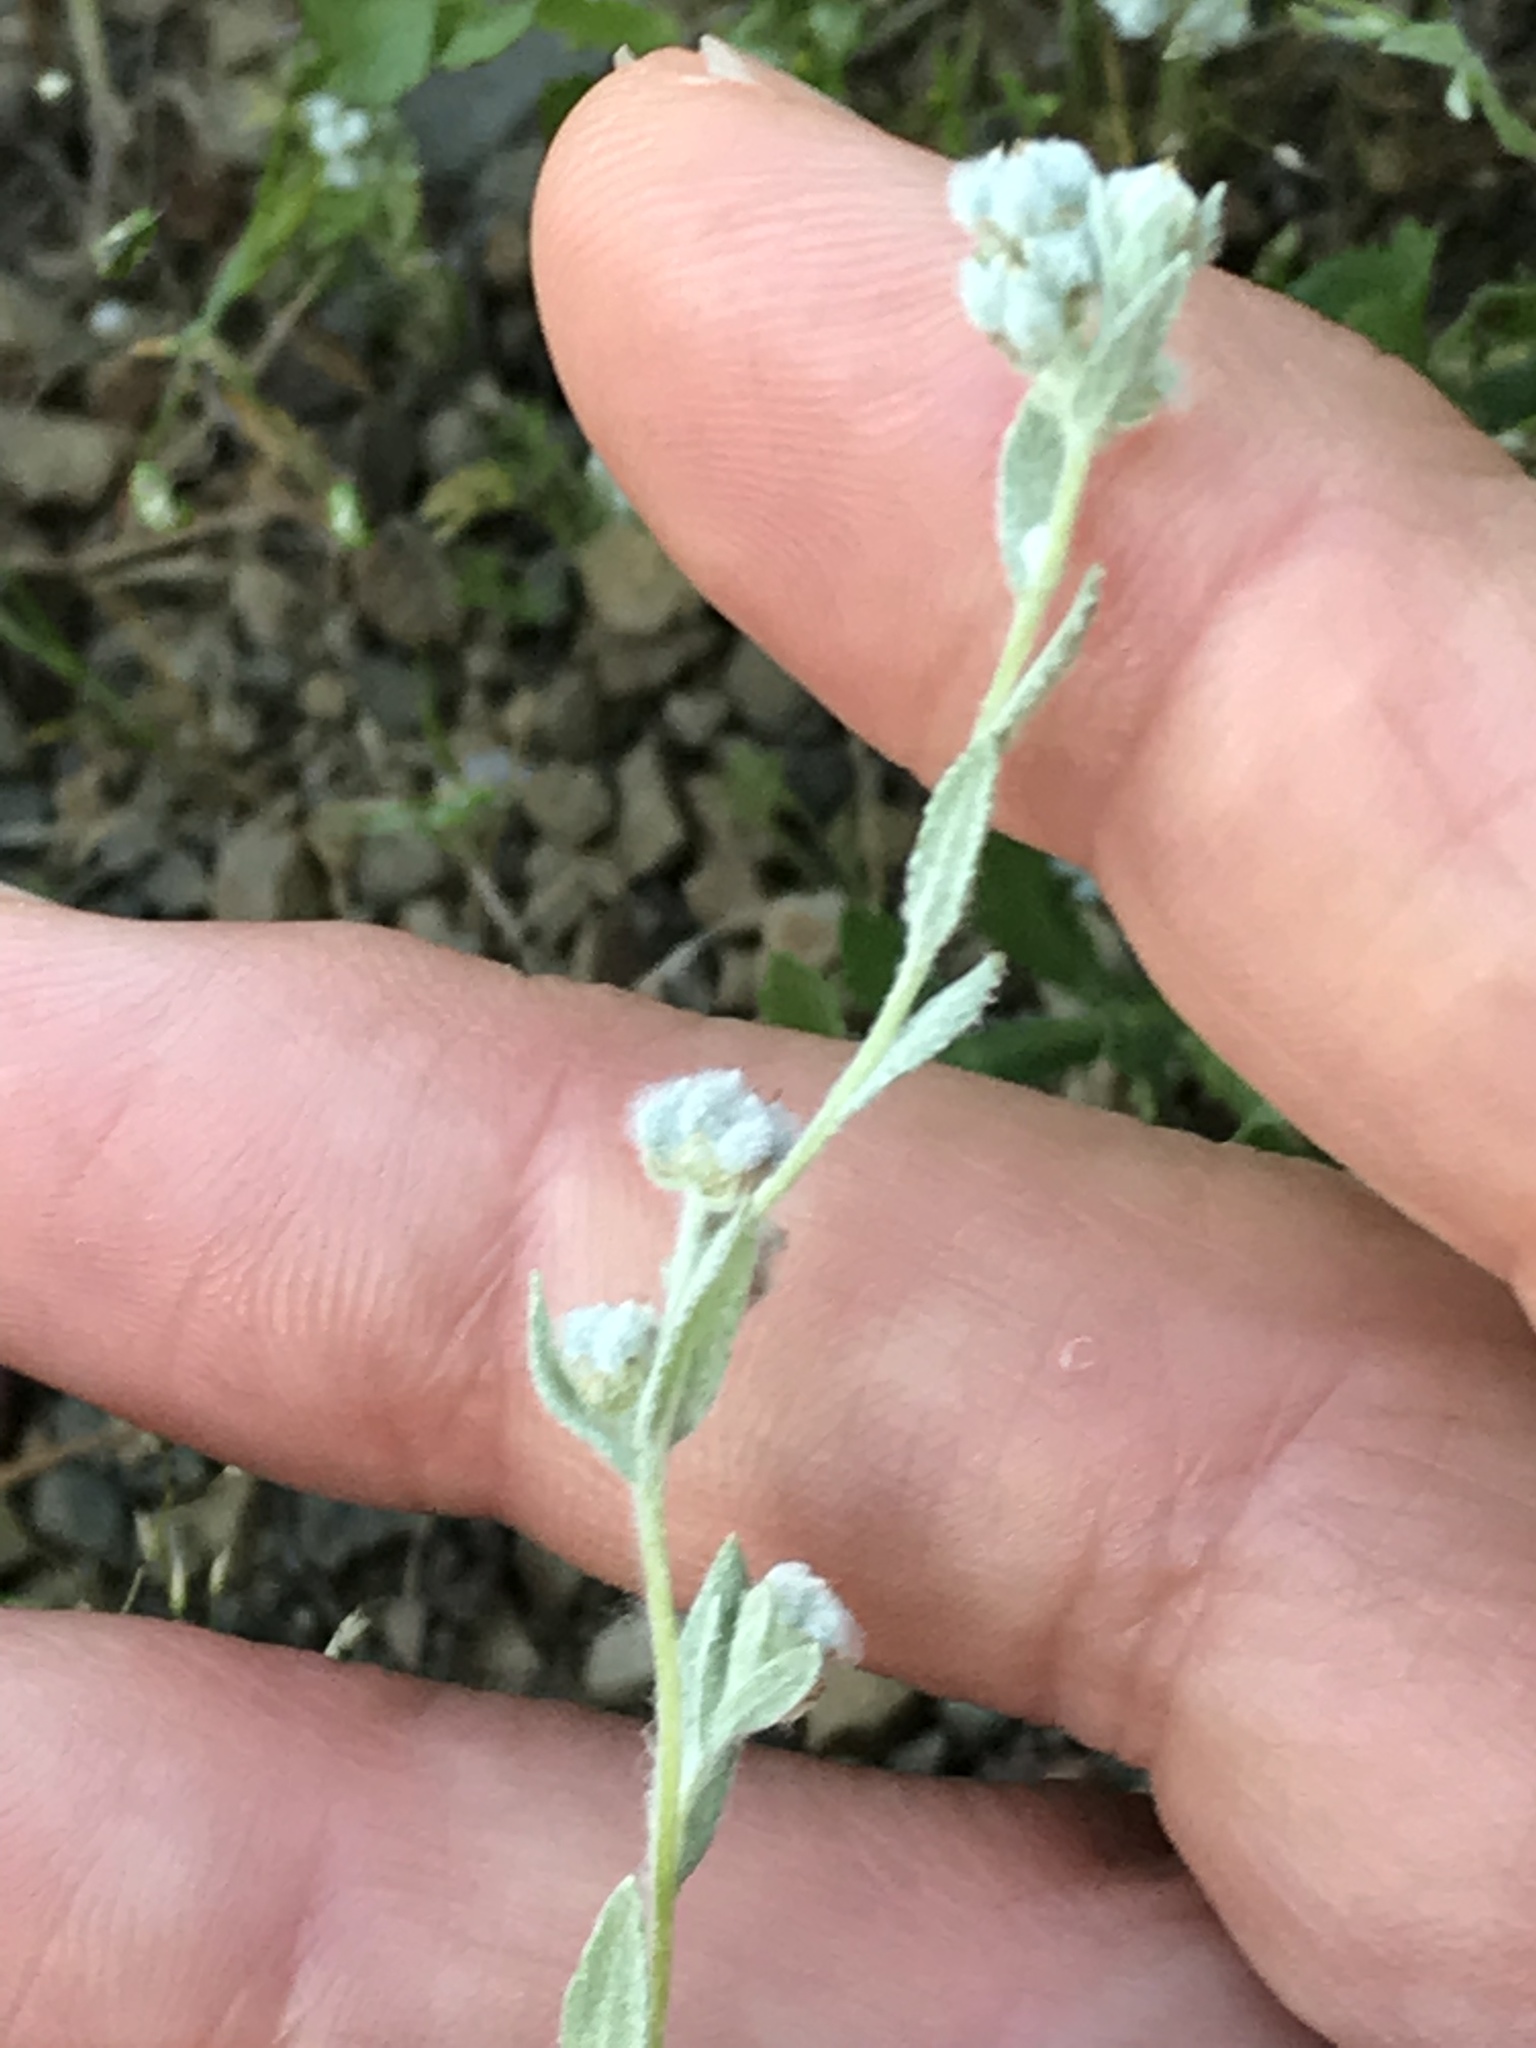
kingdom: Plantae
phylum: Tracheophyta
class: Magnoliopsida
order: Asterales
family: Asteraceae
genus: Bombycilaena
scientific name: Bombycilaena californica
